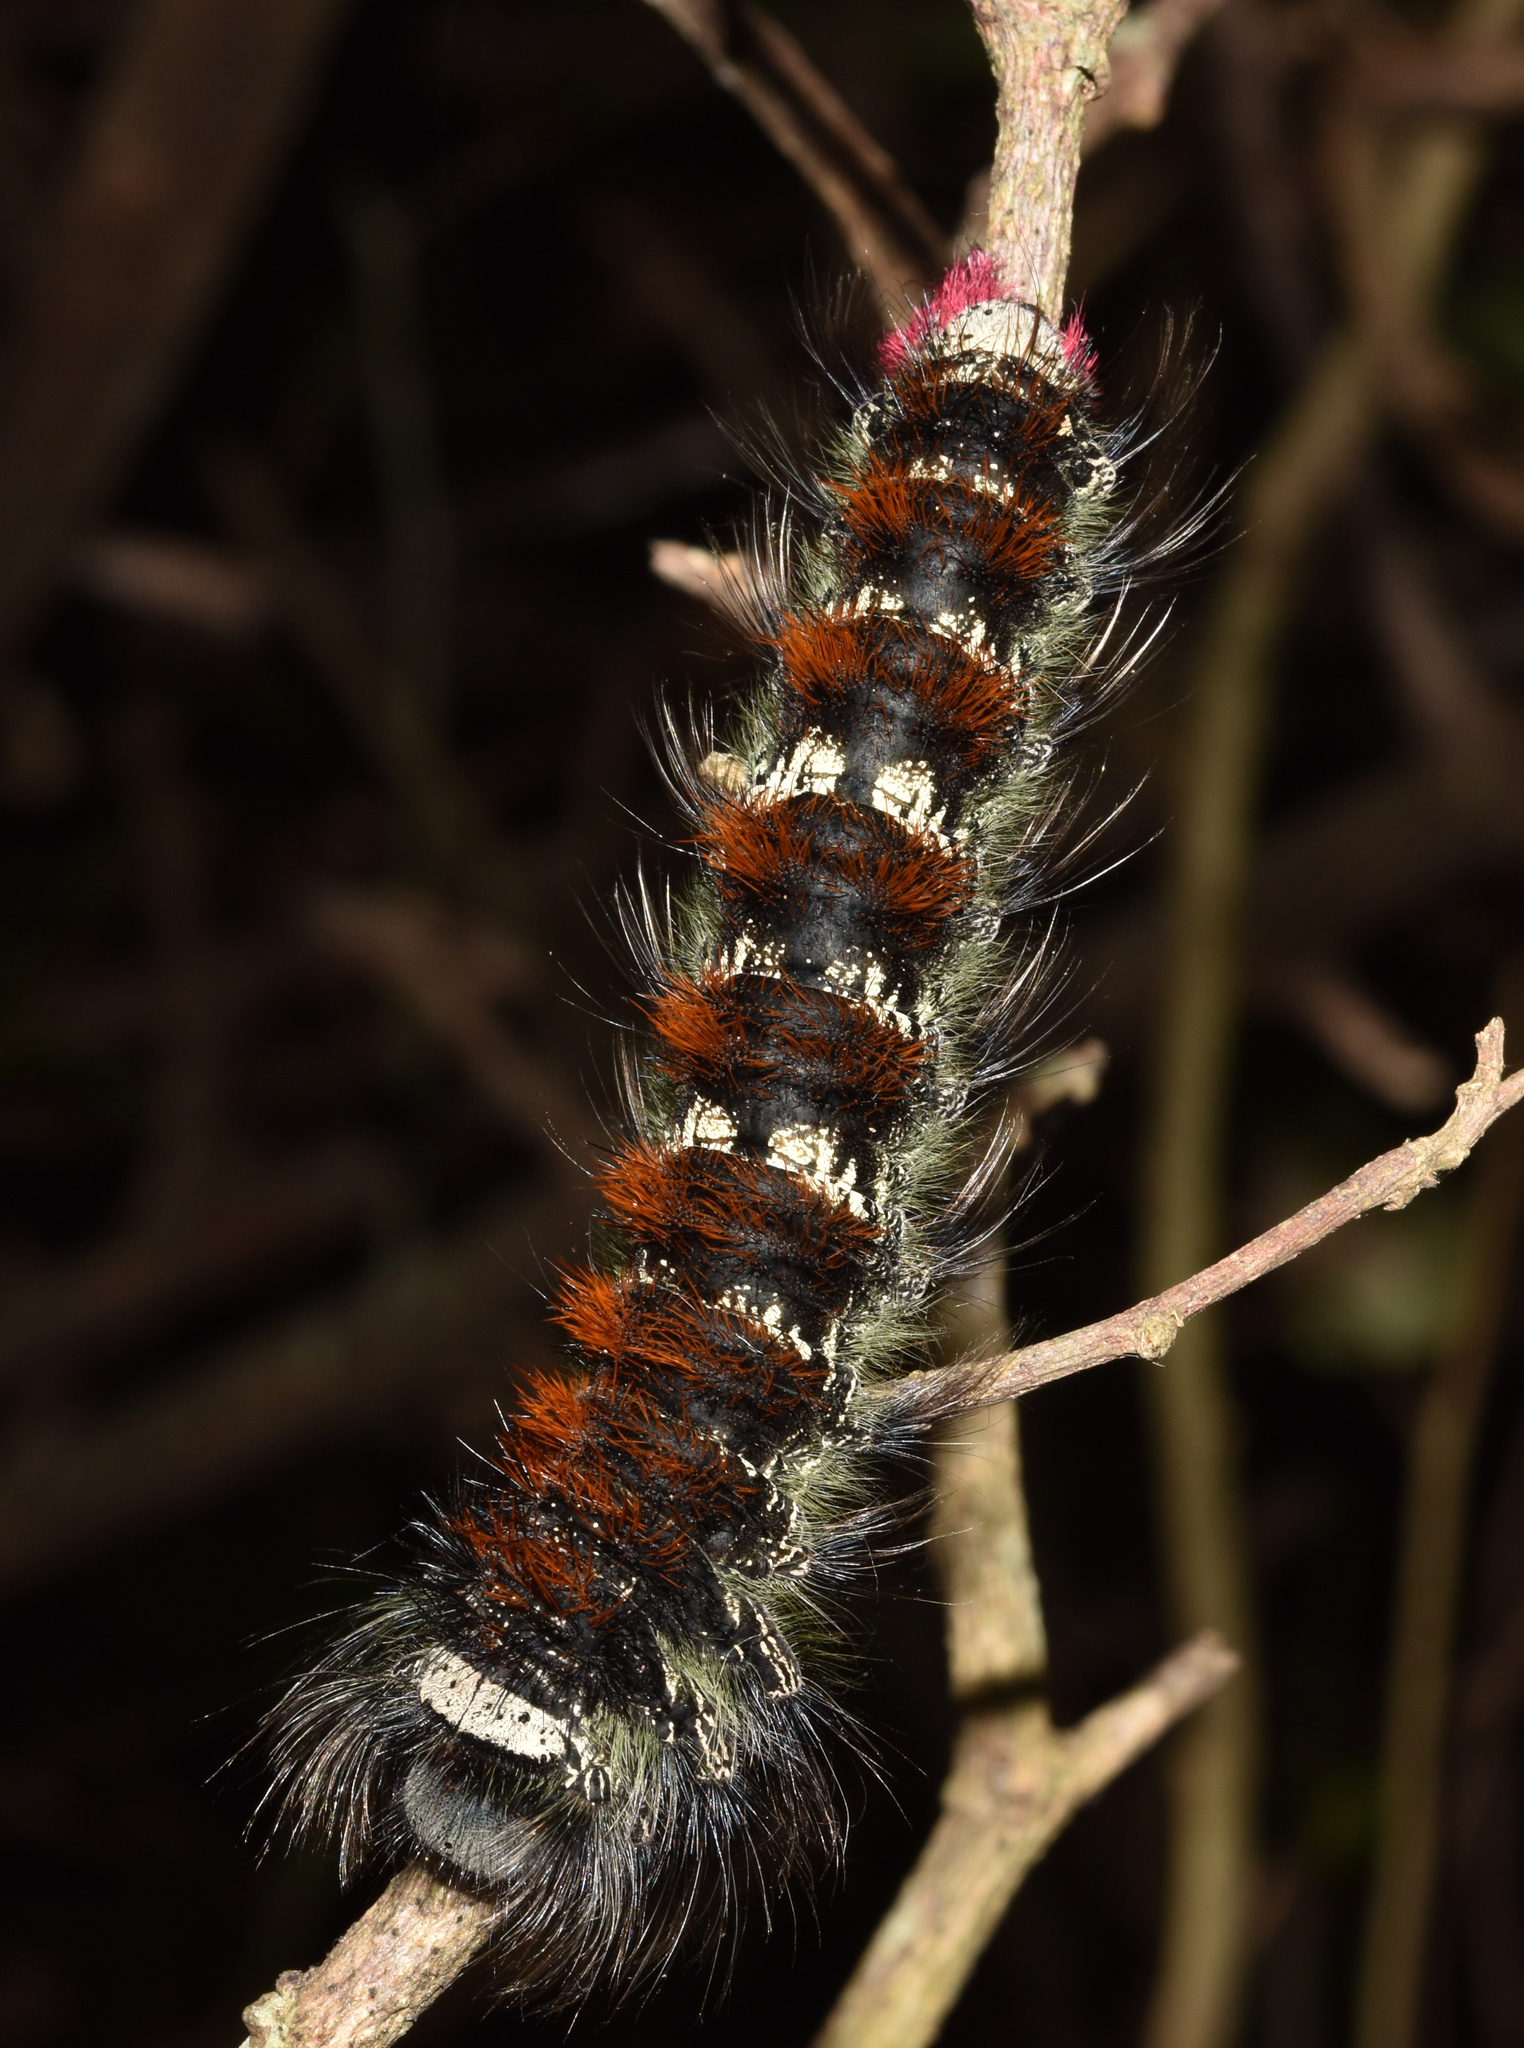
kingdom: Animalia
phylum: Arthropoda
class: Insecta
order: Lepidoptera
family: Lasiocampidae
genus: Catalebeda
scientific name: Catalebeda cuneilinea
